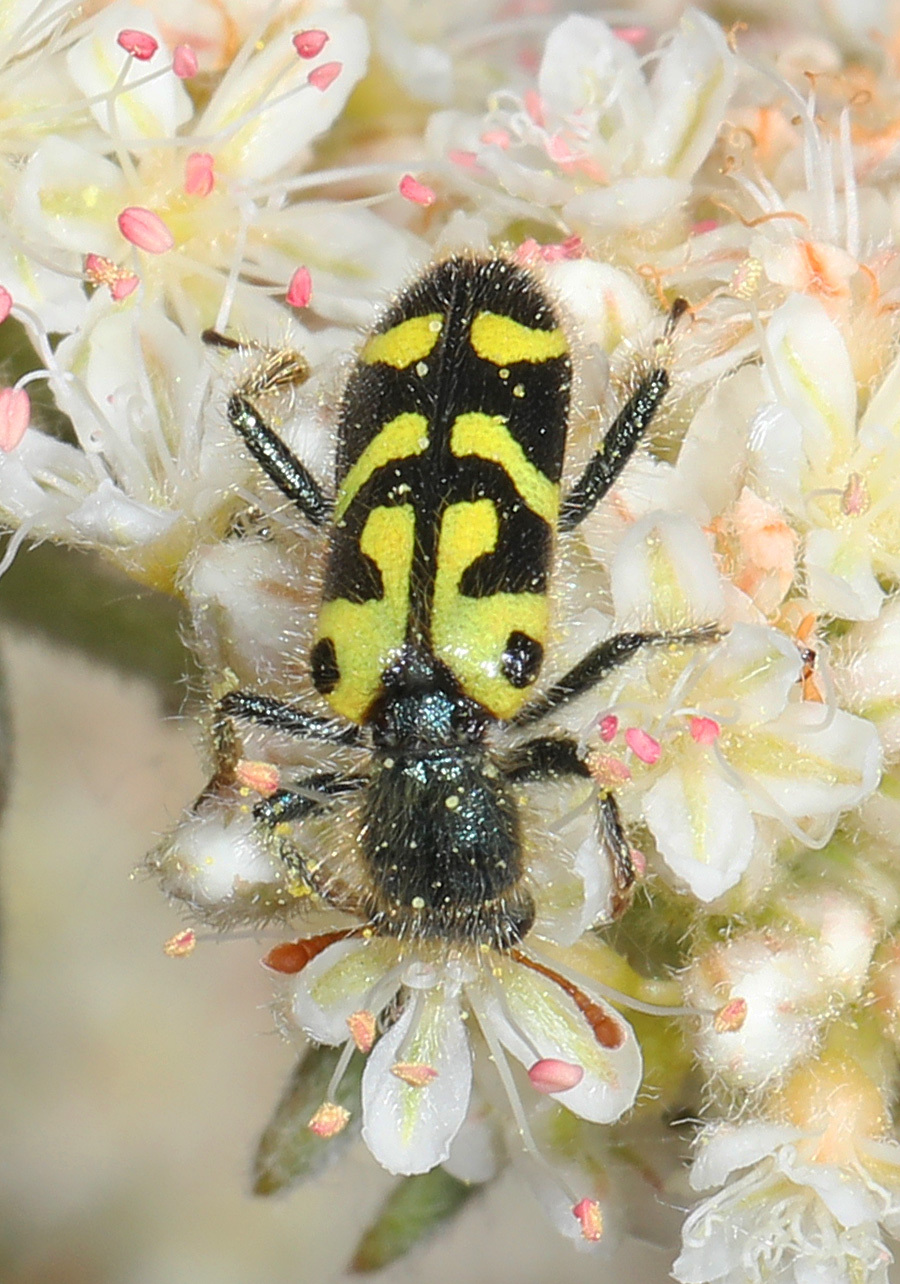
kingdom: Animalia
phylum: Arthropoda
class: Insecta
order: Coleoptera
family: Cleridae
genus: Trichodes
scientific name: Trichodes ornatus
